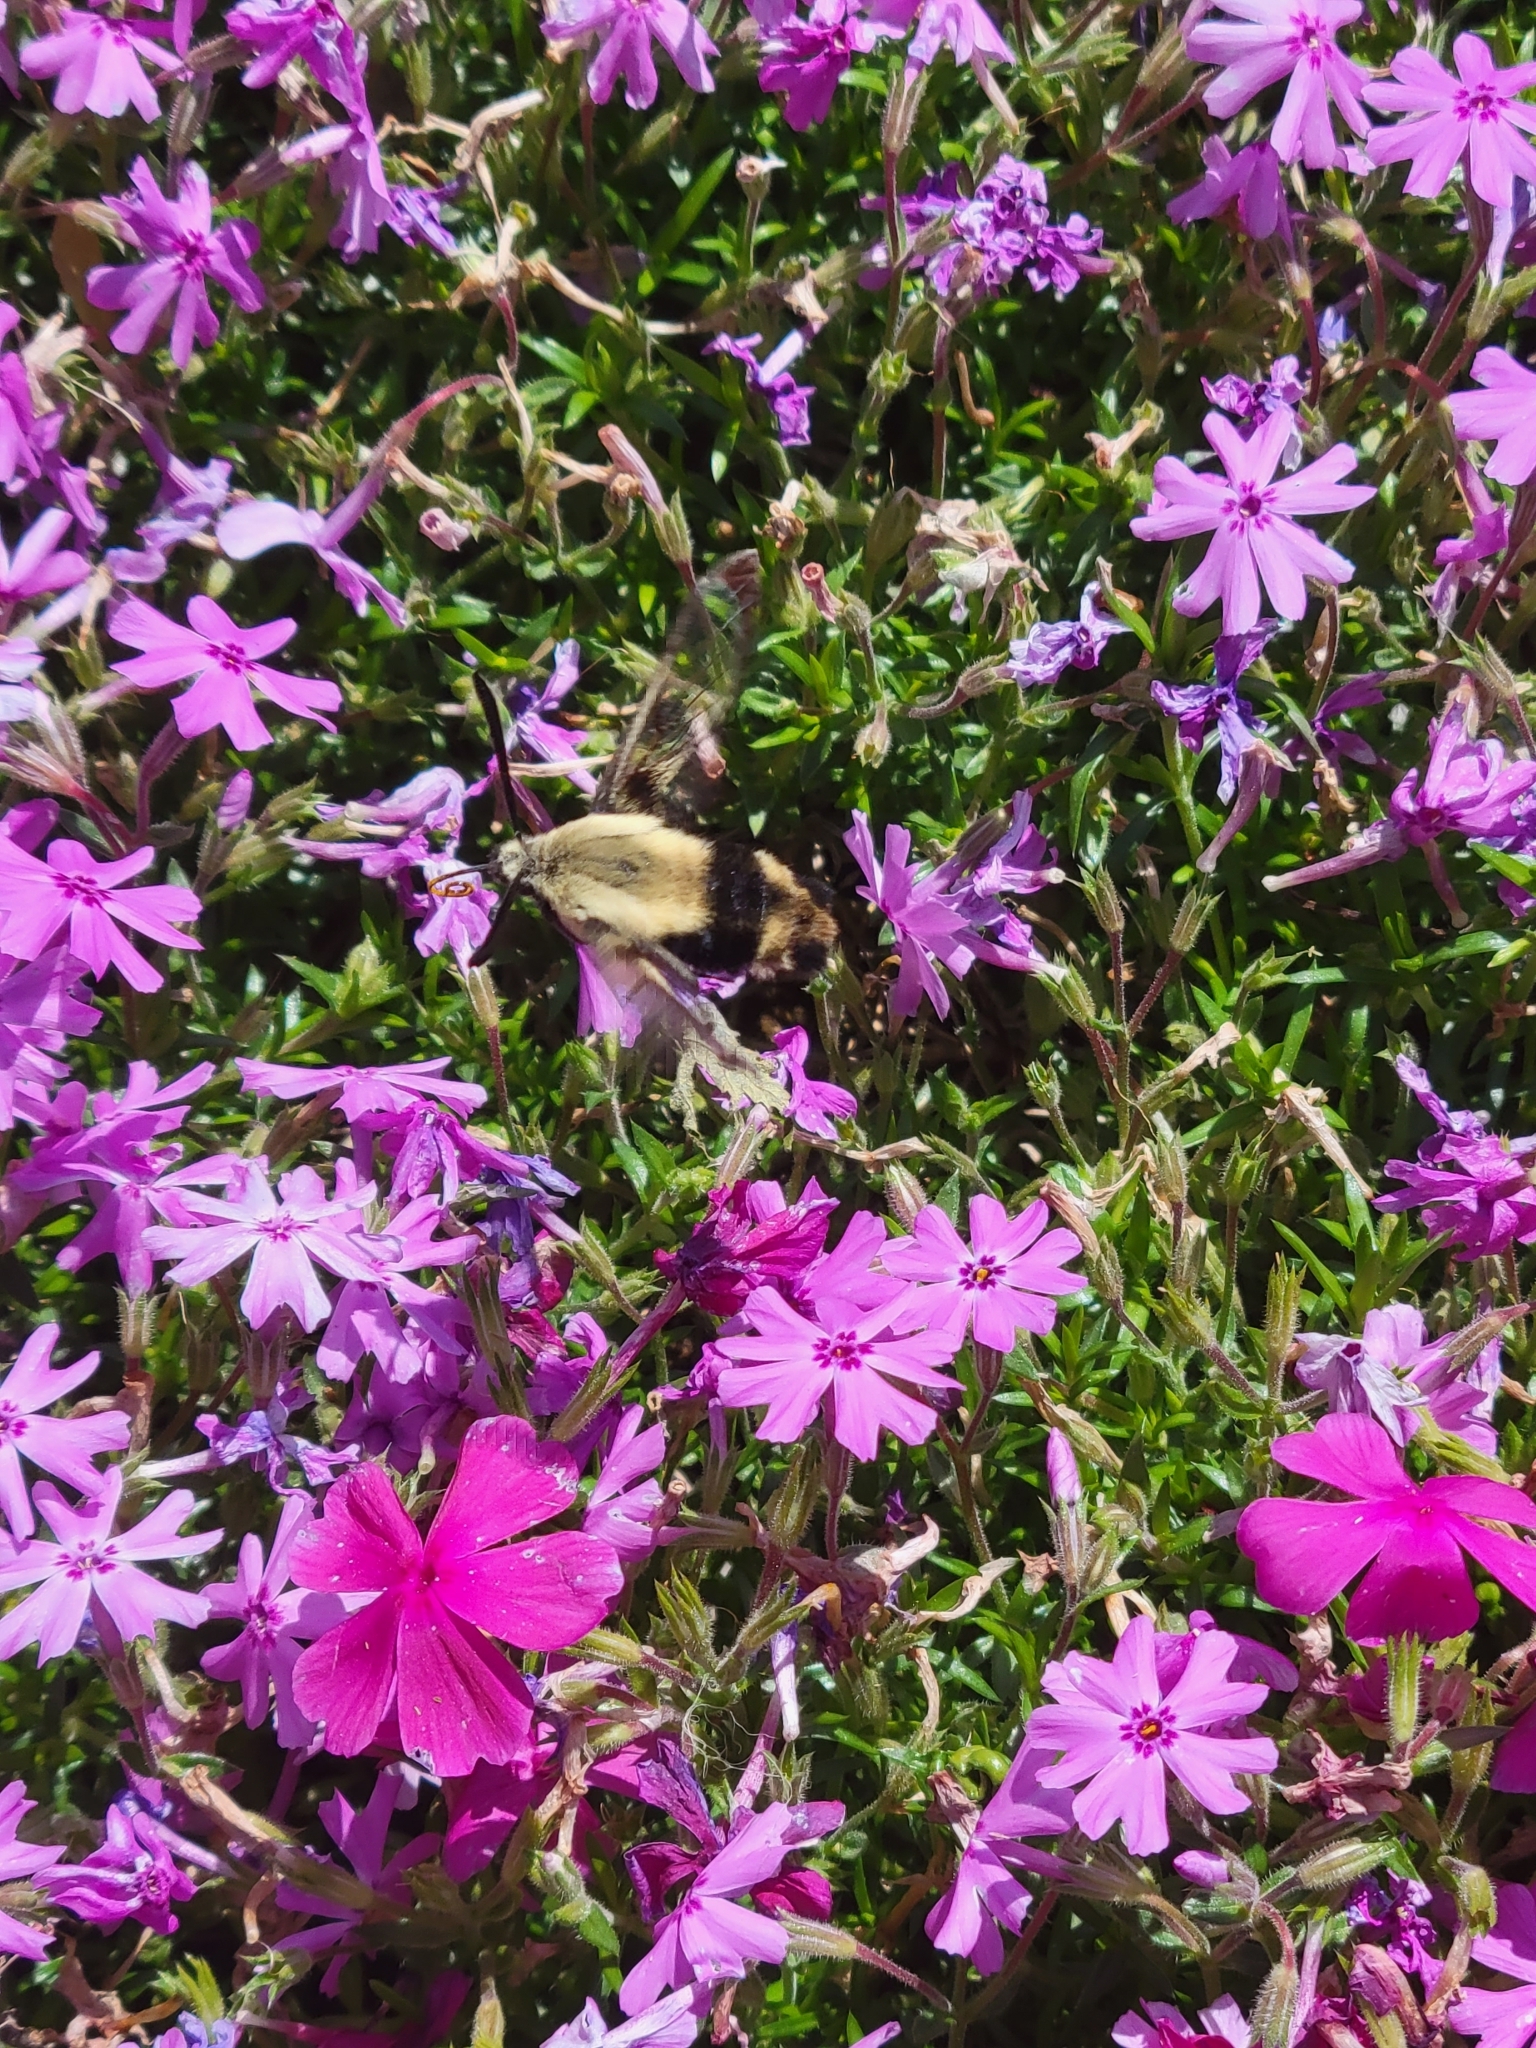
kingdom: Animalia
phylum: Arthropoda
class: Insecta
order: Lepidoptera
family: Sphingidae
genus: Hemaris
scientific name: Hemaris diffinis
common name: Bumblebee moth
